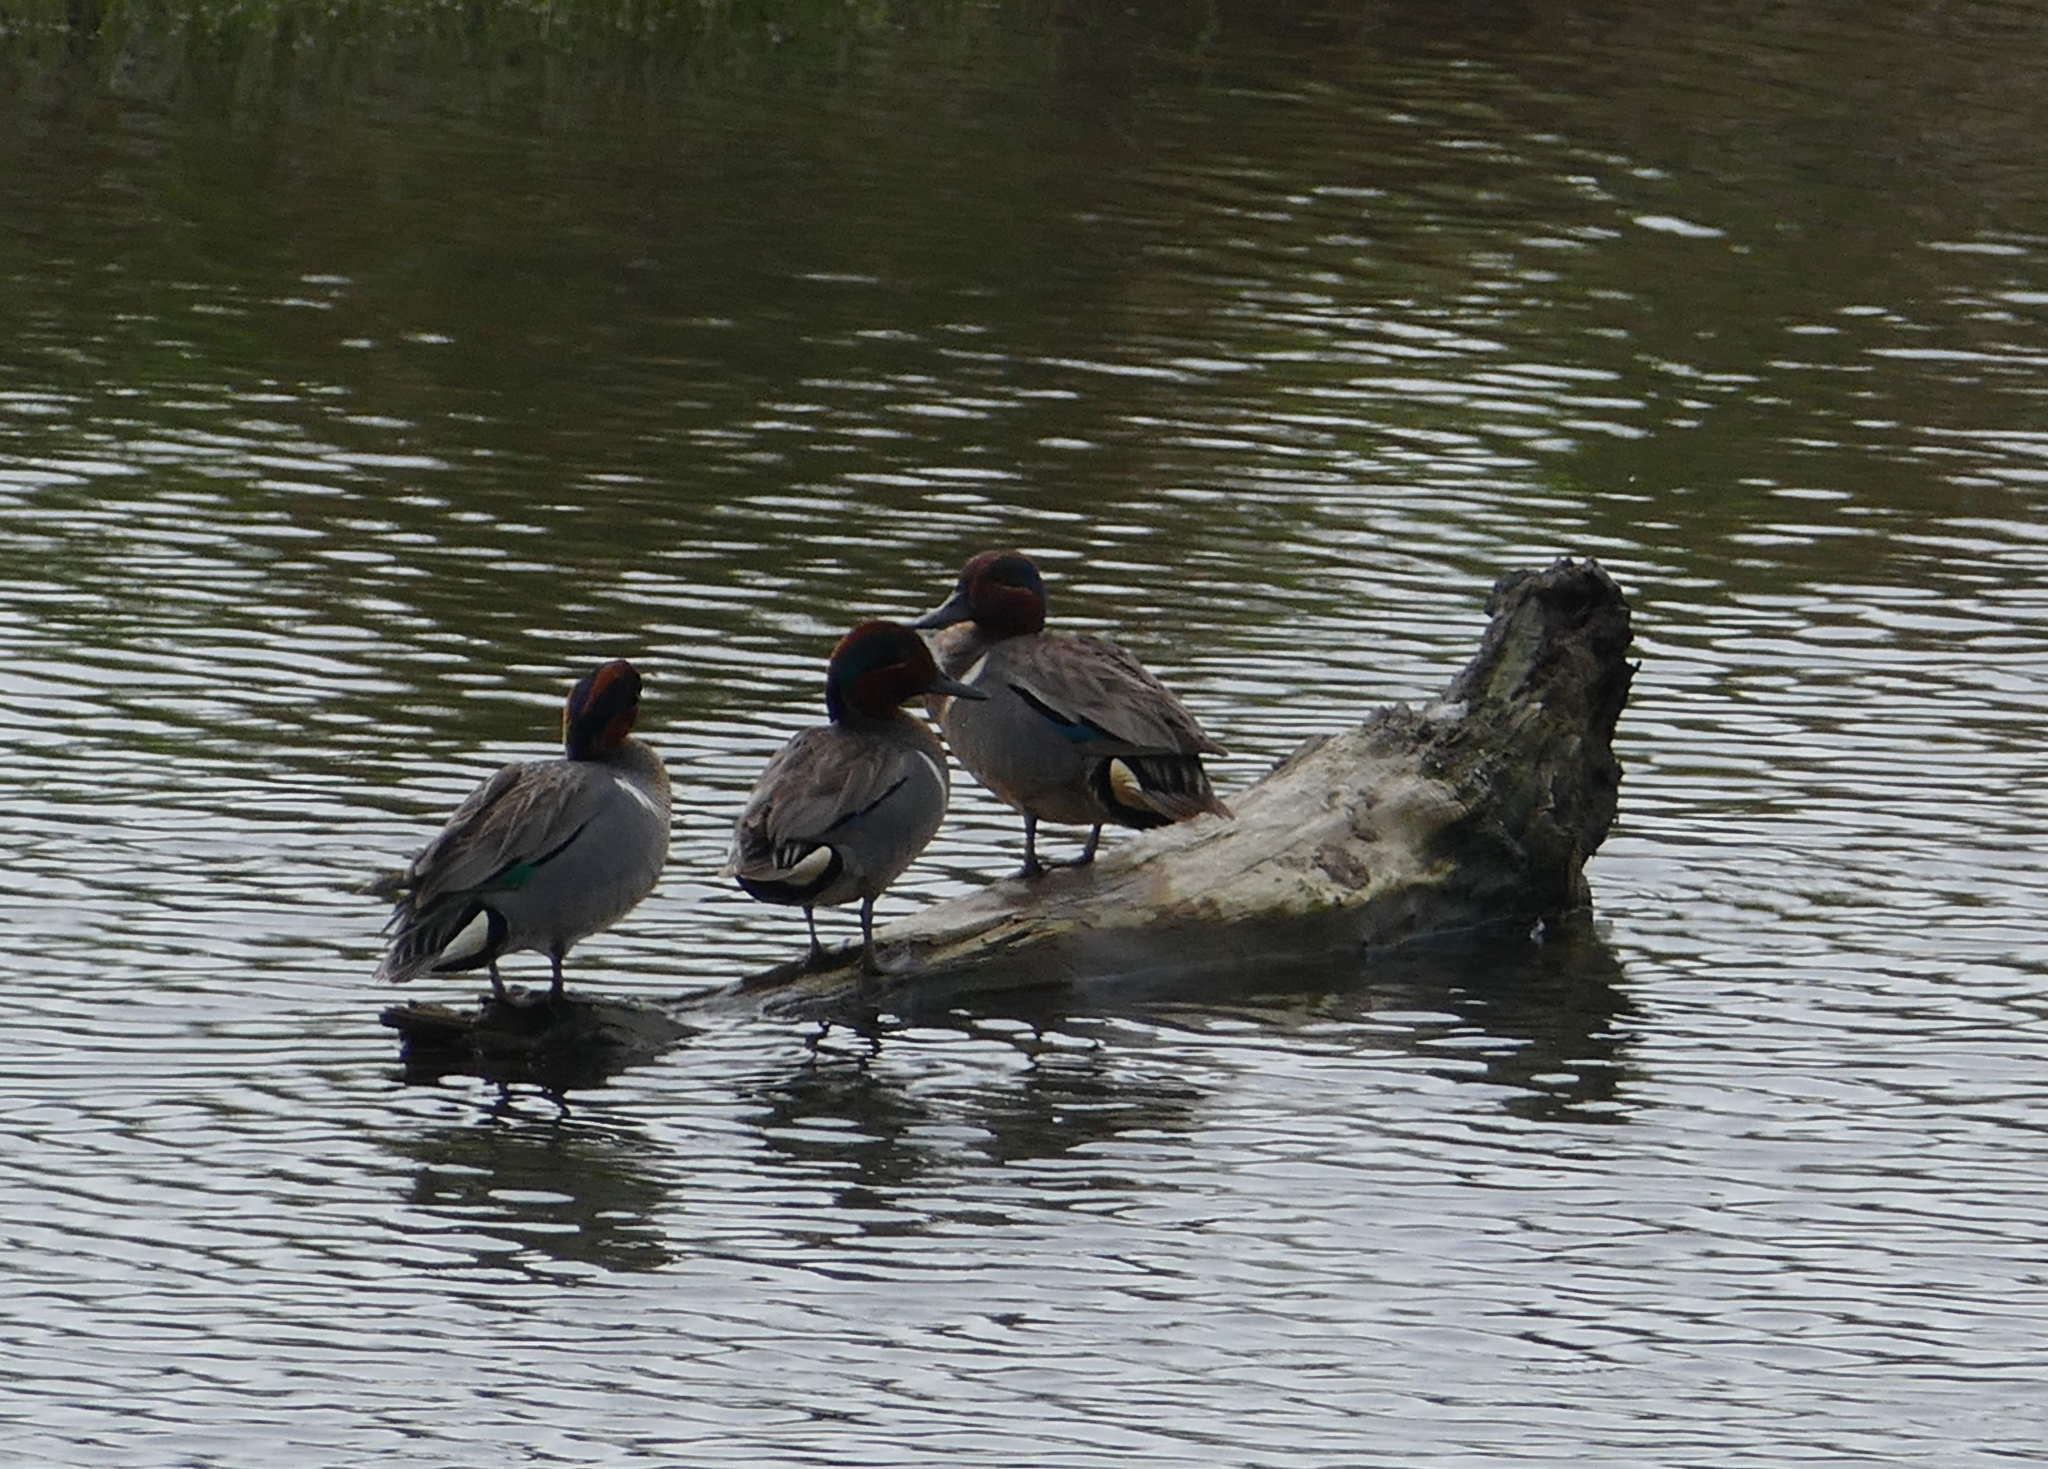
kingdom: Animalia
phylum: Chordata
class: Aves
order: Anseriformes
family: Anatidae
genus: Anas
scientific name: Anas crecca
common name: Eurasian teal
